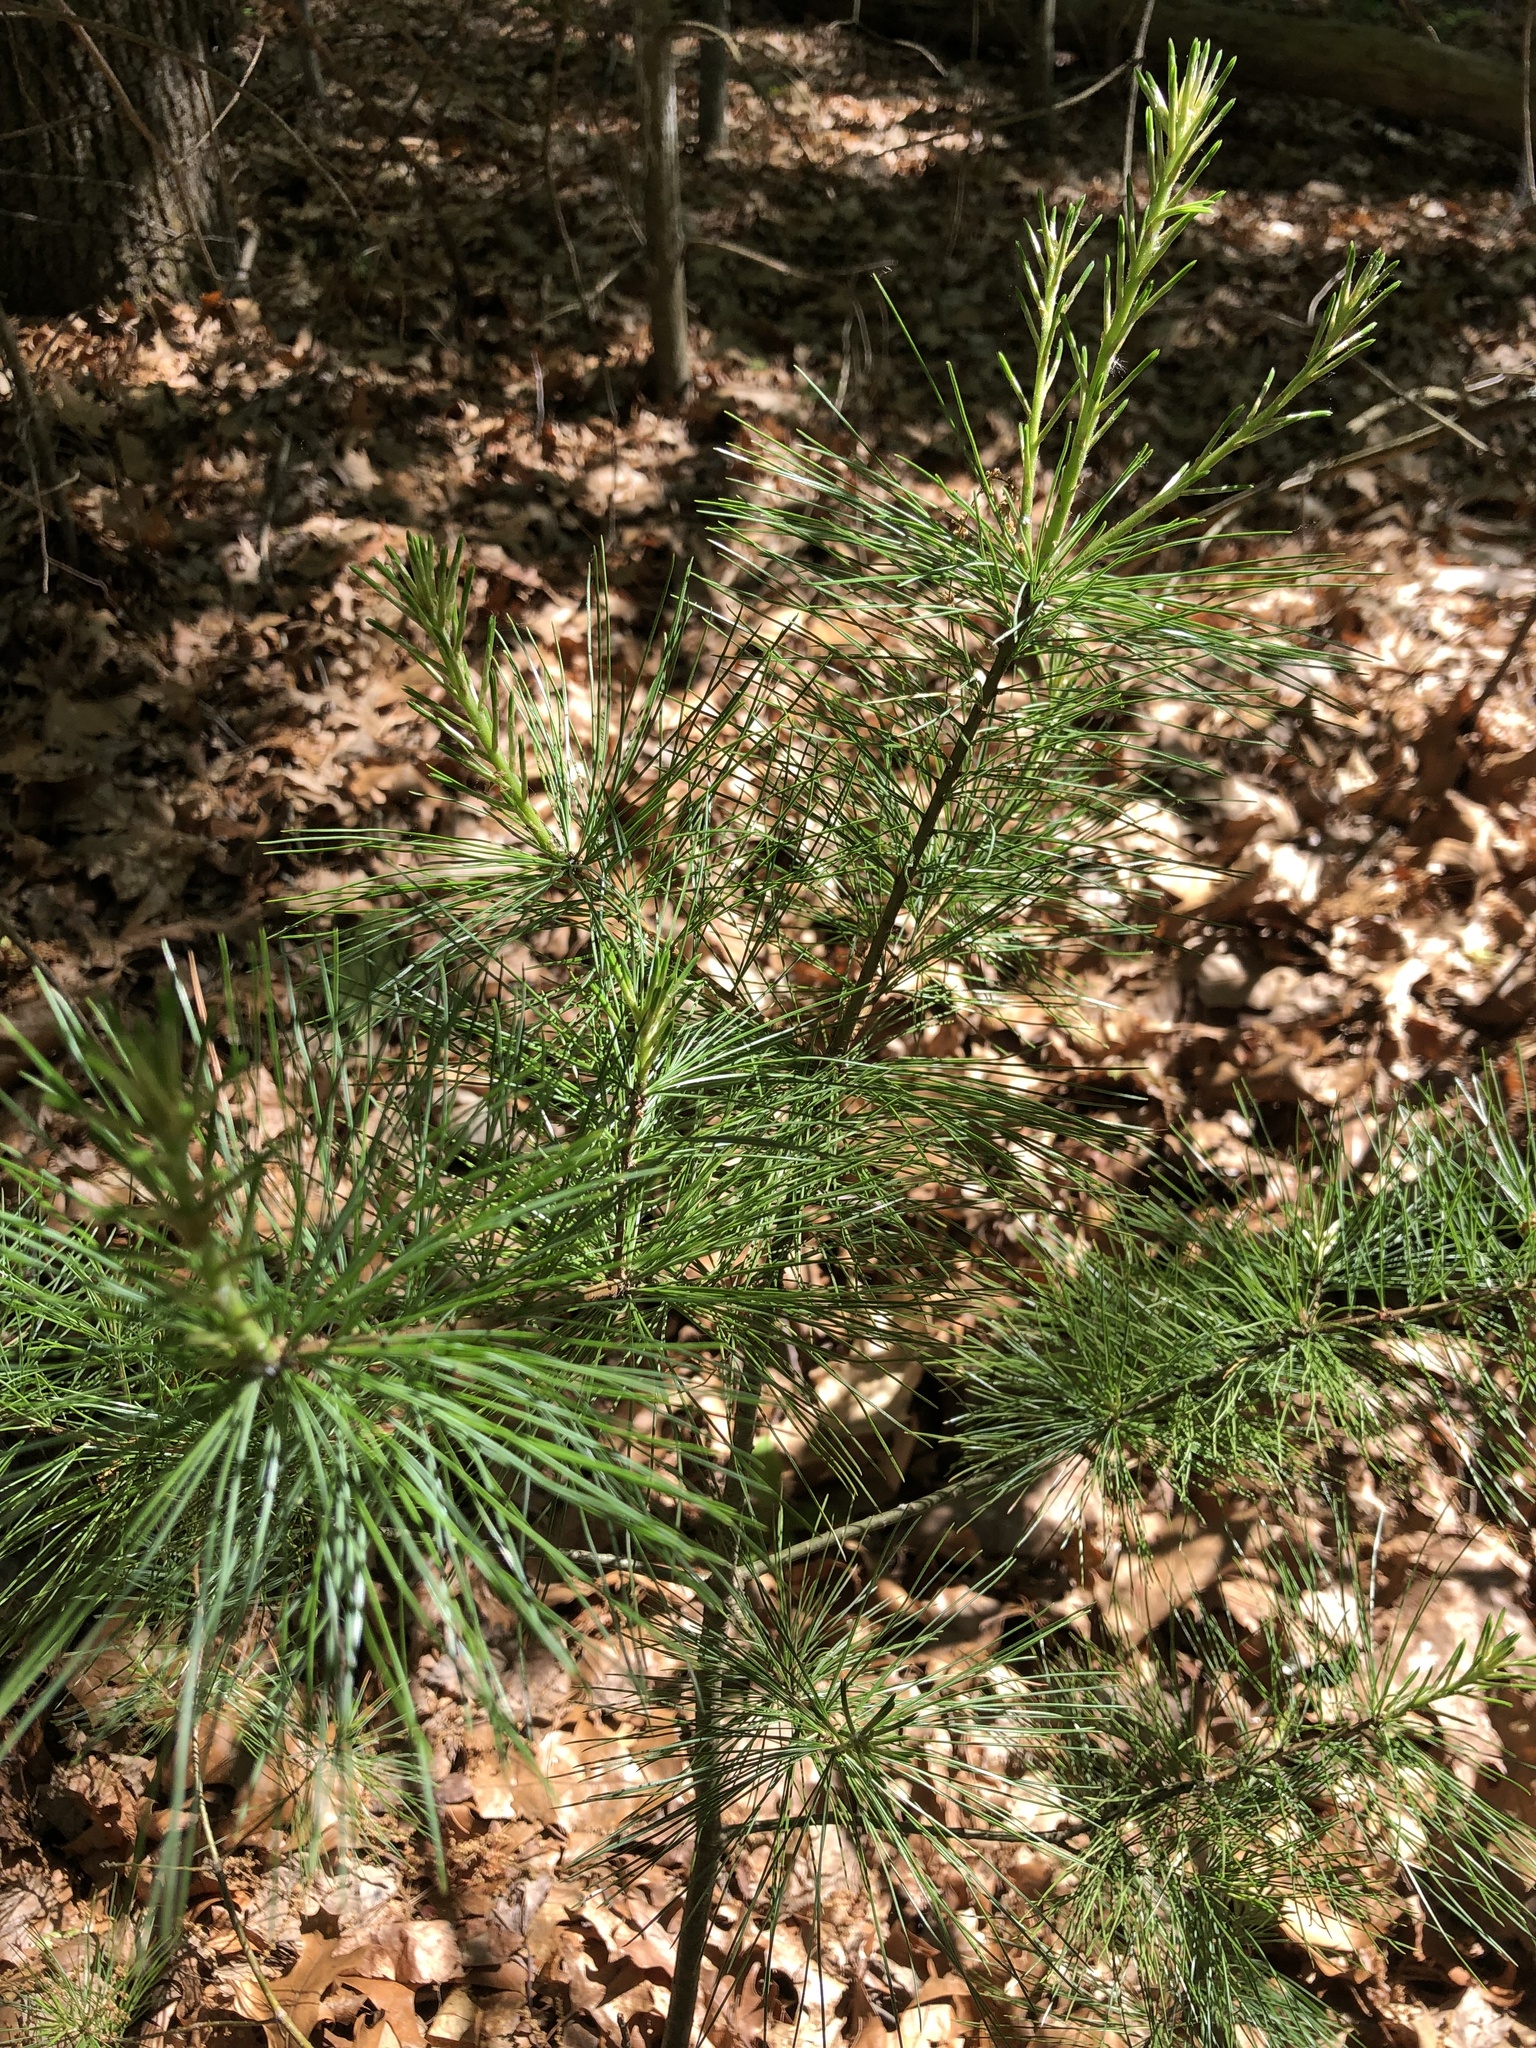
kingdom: Plantae
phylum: Tracheophyta
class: Pinopsida
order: Pinales
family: Pinaceae
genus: Pinus
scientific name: Pinus strobus
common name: Weymouth pine
